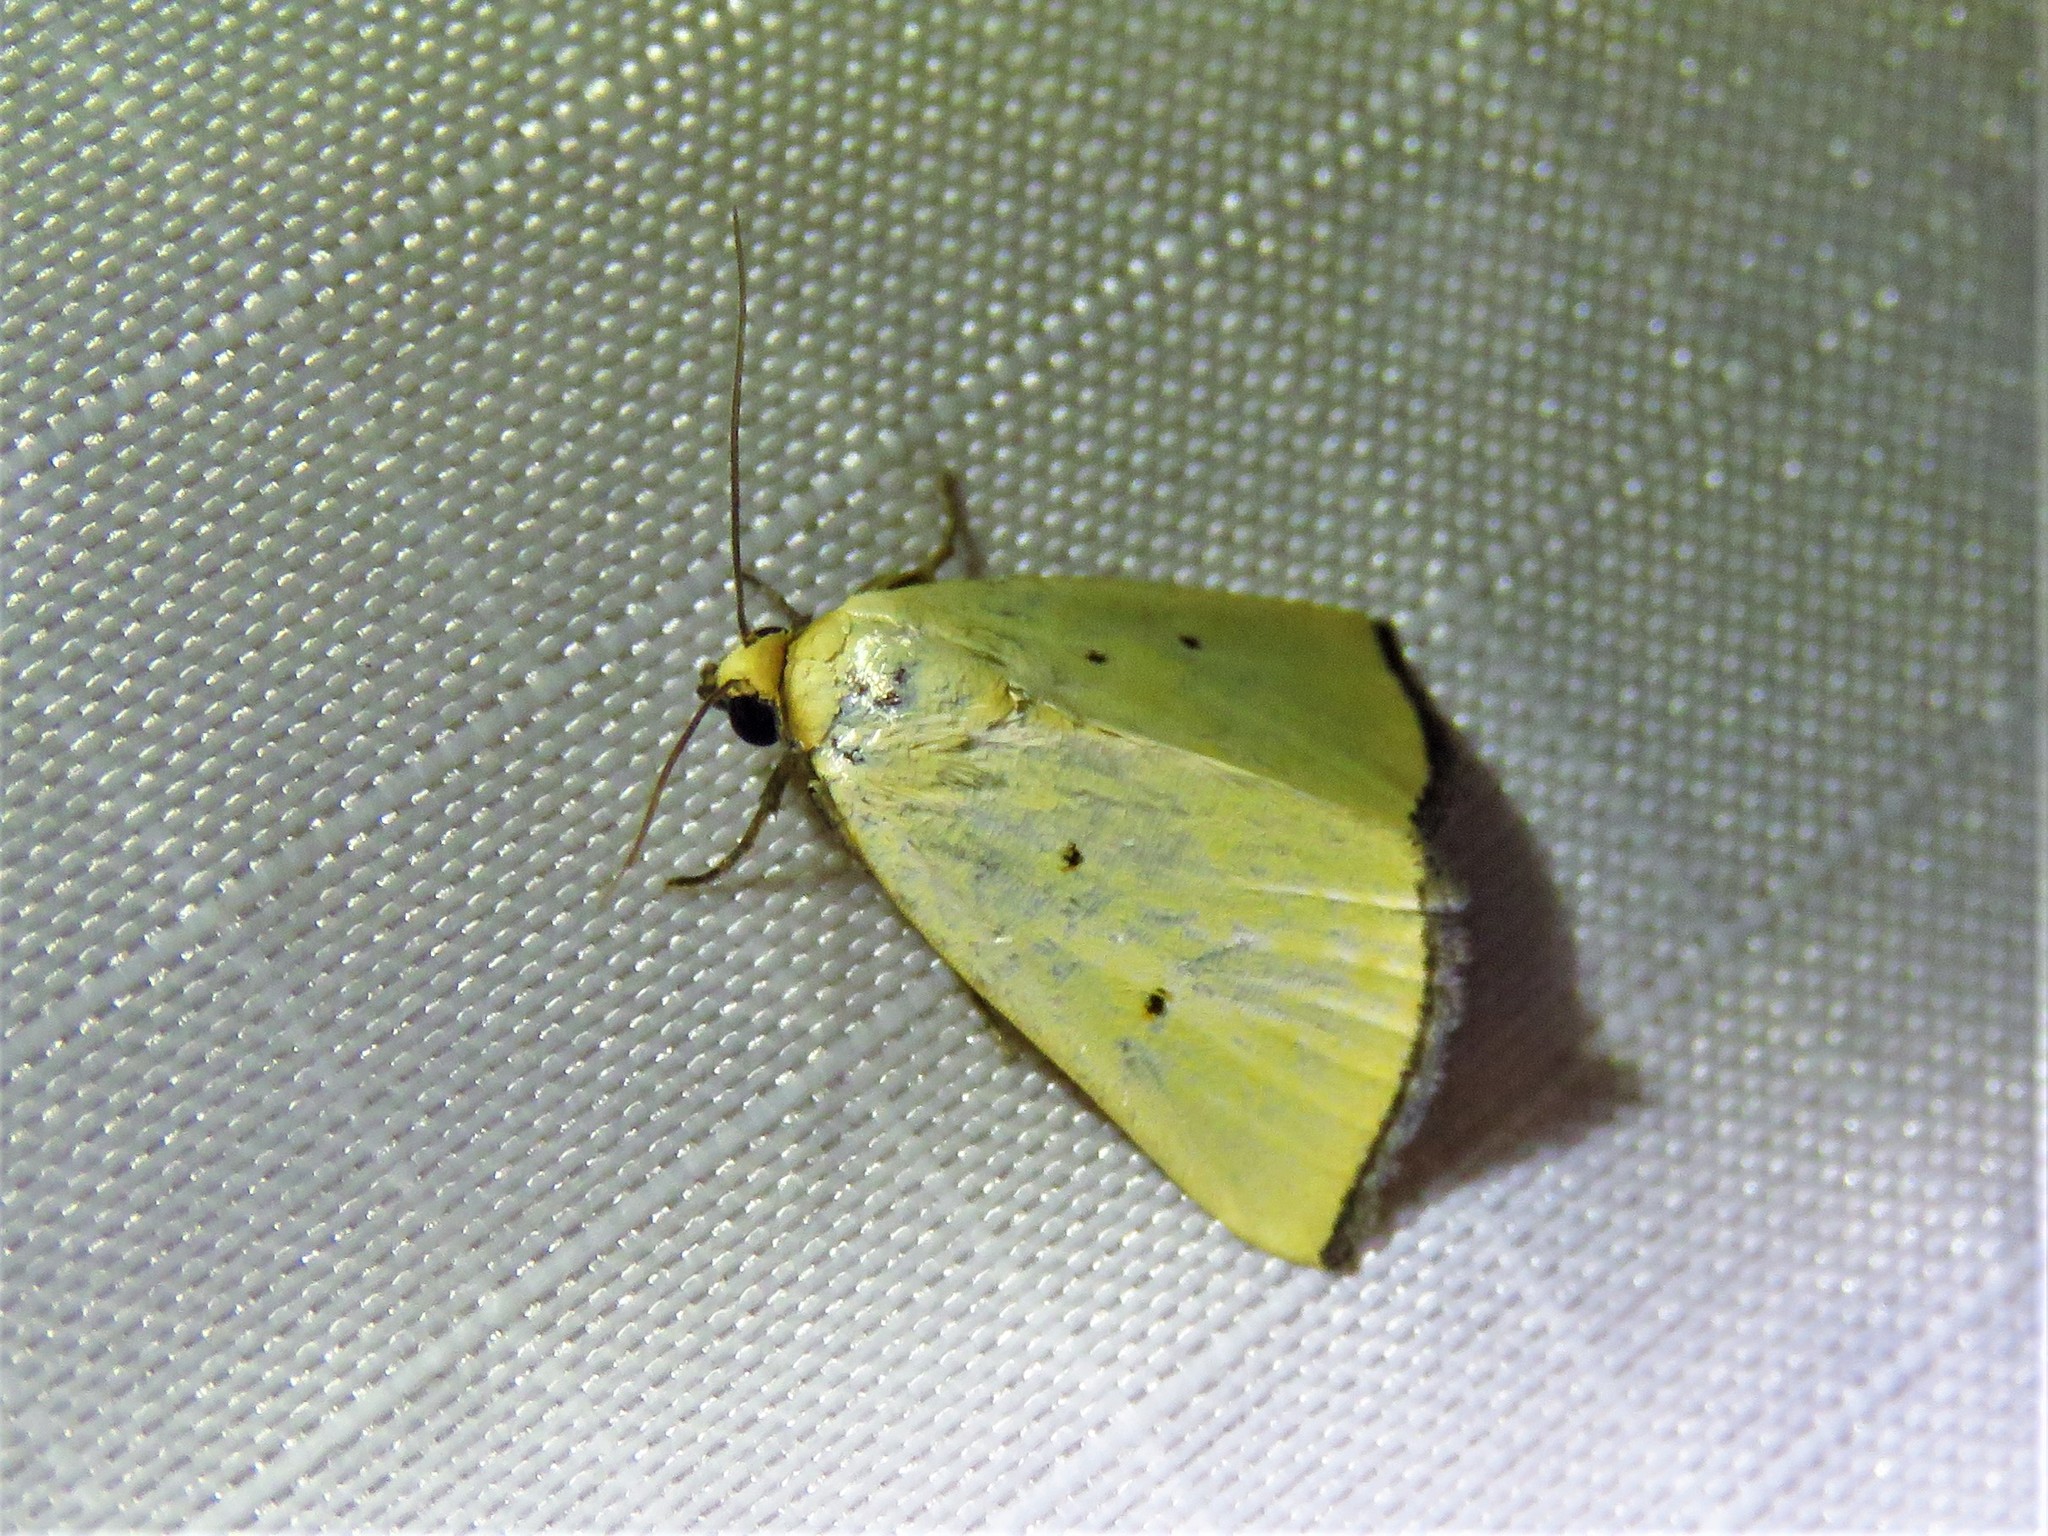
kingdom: Animalia
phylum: Arthropoda
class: Insecta
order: Lepidoptera
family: Noctuidae
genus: Marimatha
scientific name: Marimatha nigrofimbria
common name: Black-bordered lemon moth
